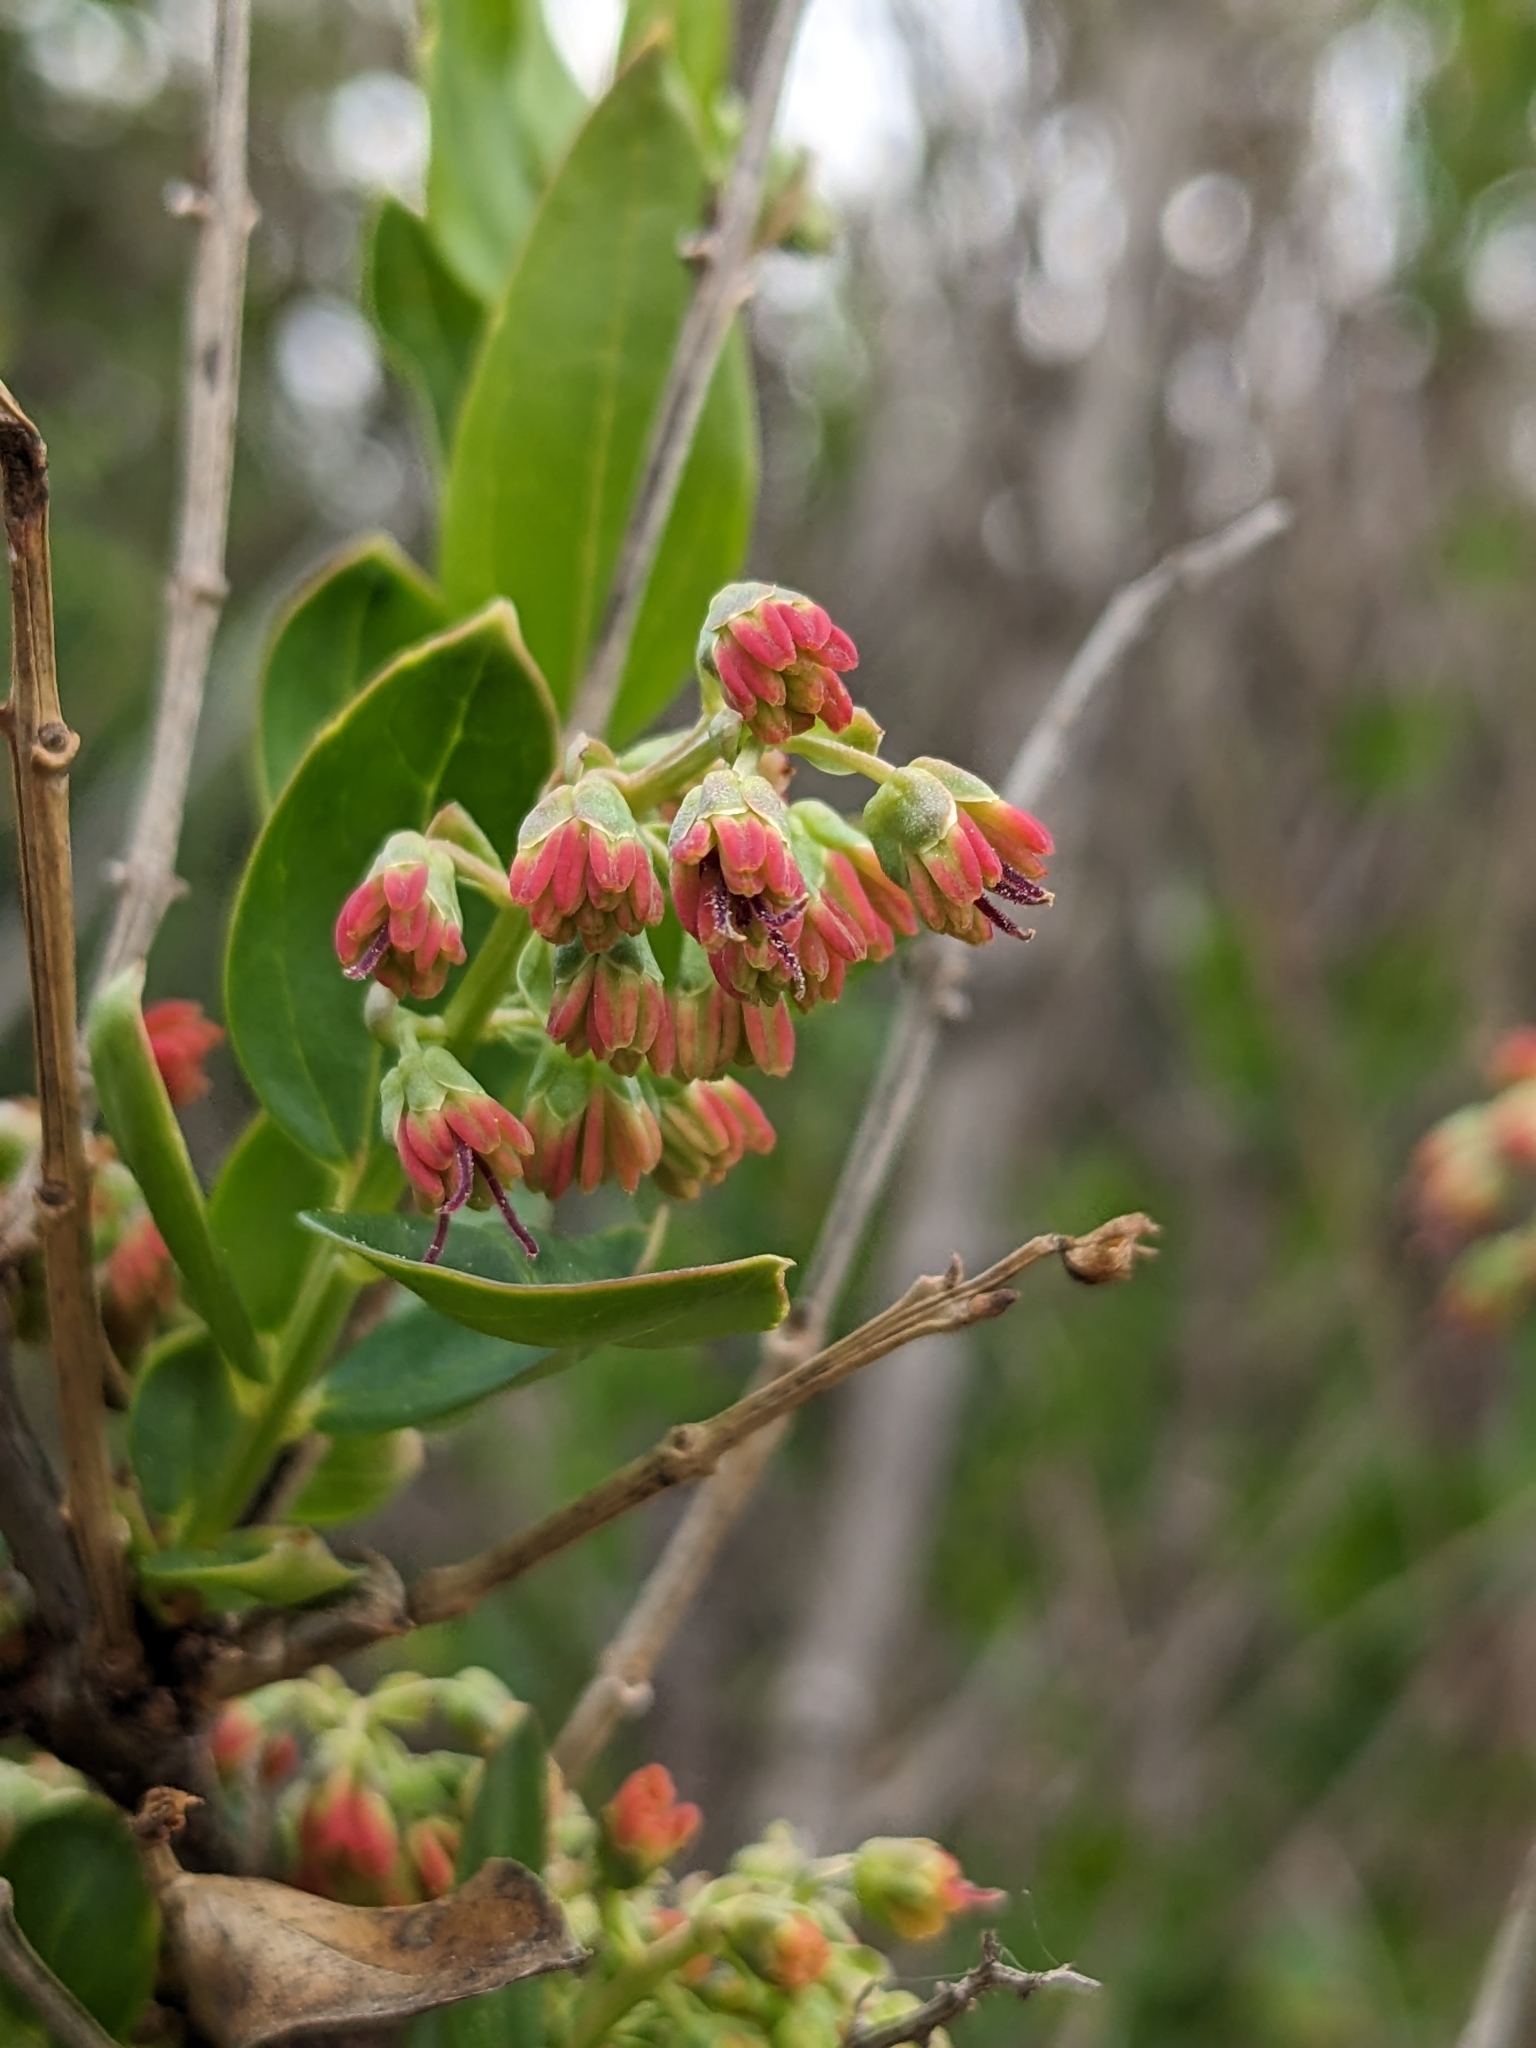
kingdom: Plantae
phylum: Tracheophyta
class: Magnoliopsida
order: Cucurbitales
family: Coriariaceae
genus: Coriaria
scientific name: Coriaria myrtifolia
